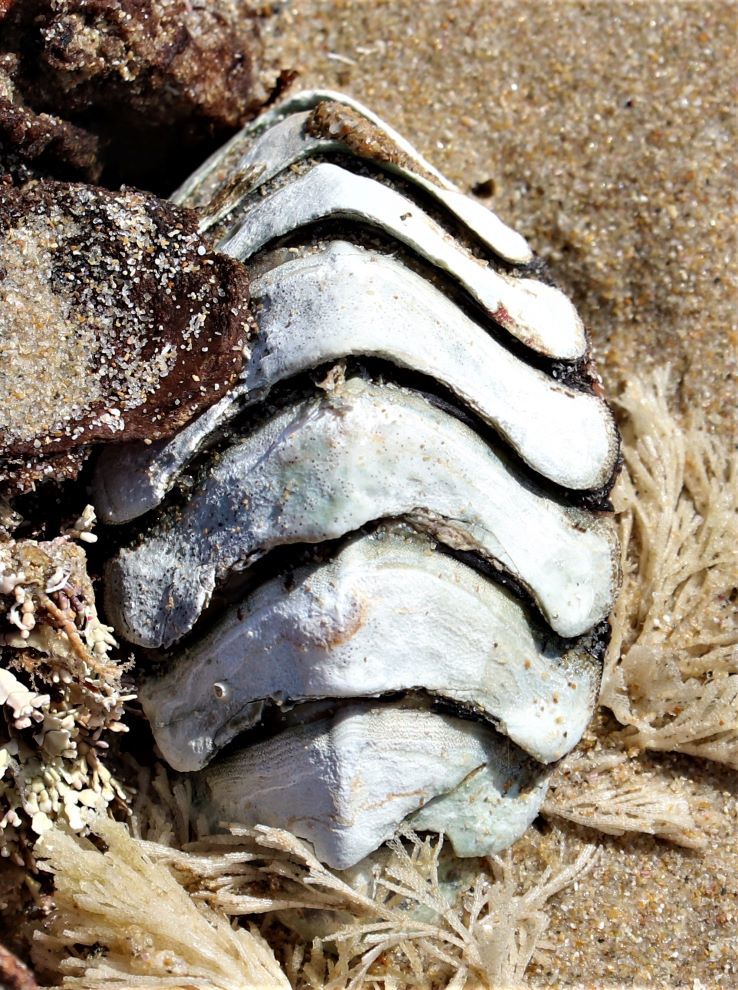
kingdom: Animalia
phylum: Mollusca
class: Polyplacophora
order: Chitonida
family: Chaetopleuridae
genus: Dinoplax
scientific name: Dinoplax gigas
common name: Armadillo
